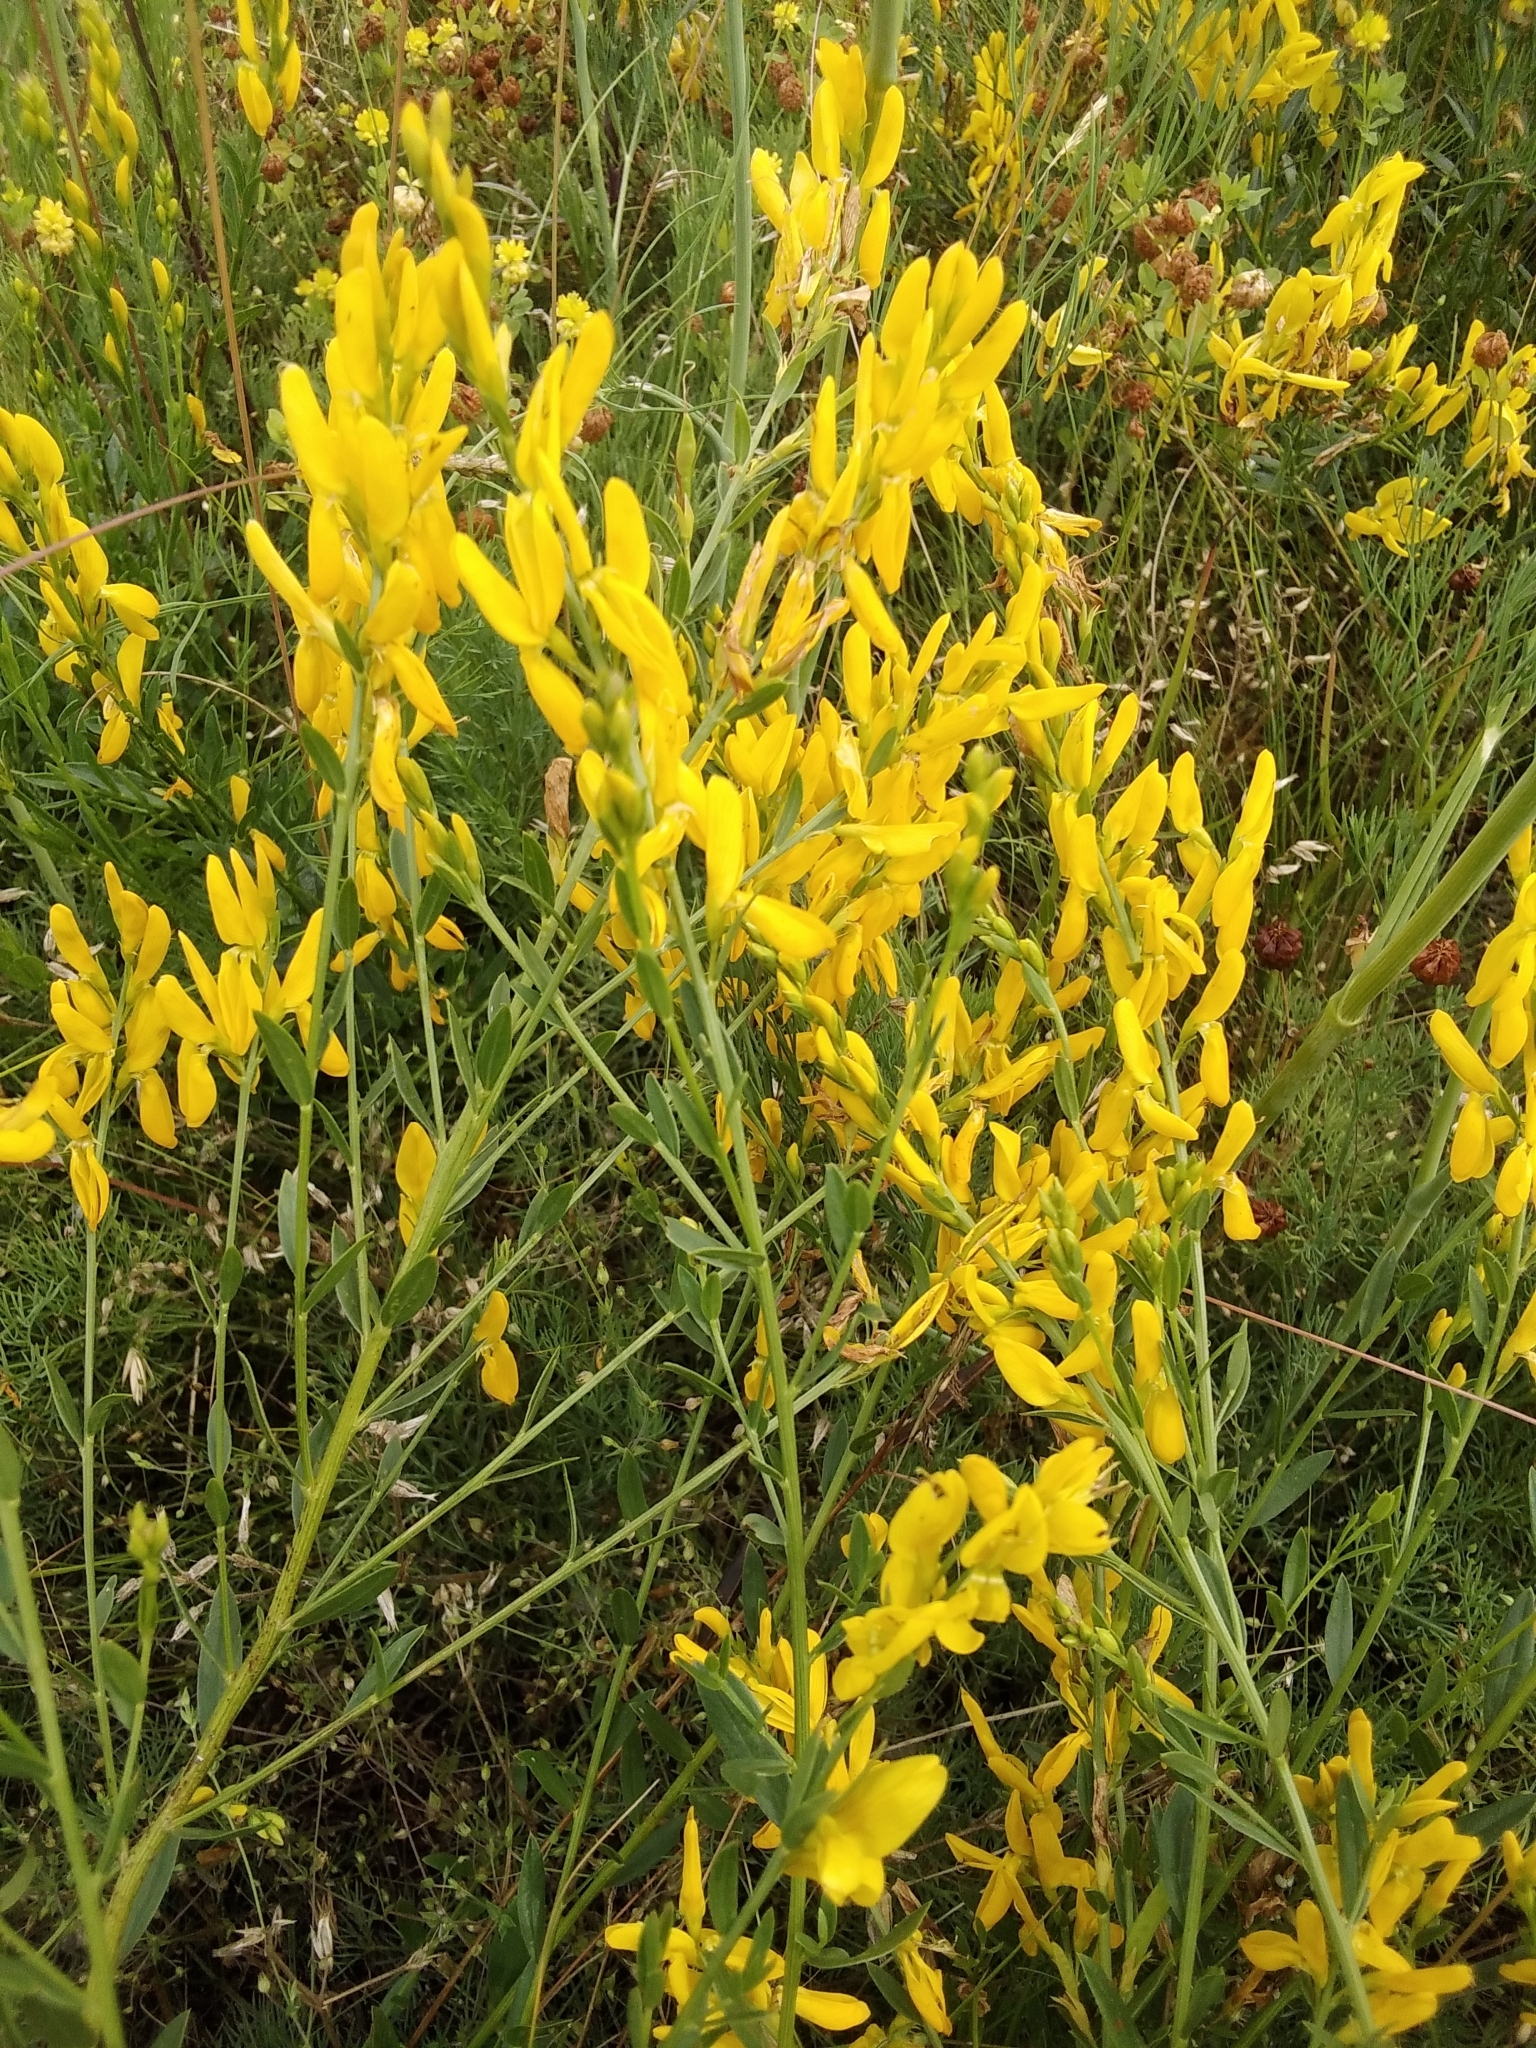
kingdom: Plantae
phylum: Tracheophyta
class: Magnoliopsida
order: Fabales
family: Fabaceae
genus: Genista
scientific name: Genista tinctoria
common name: Dyer's greenweed
